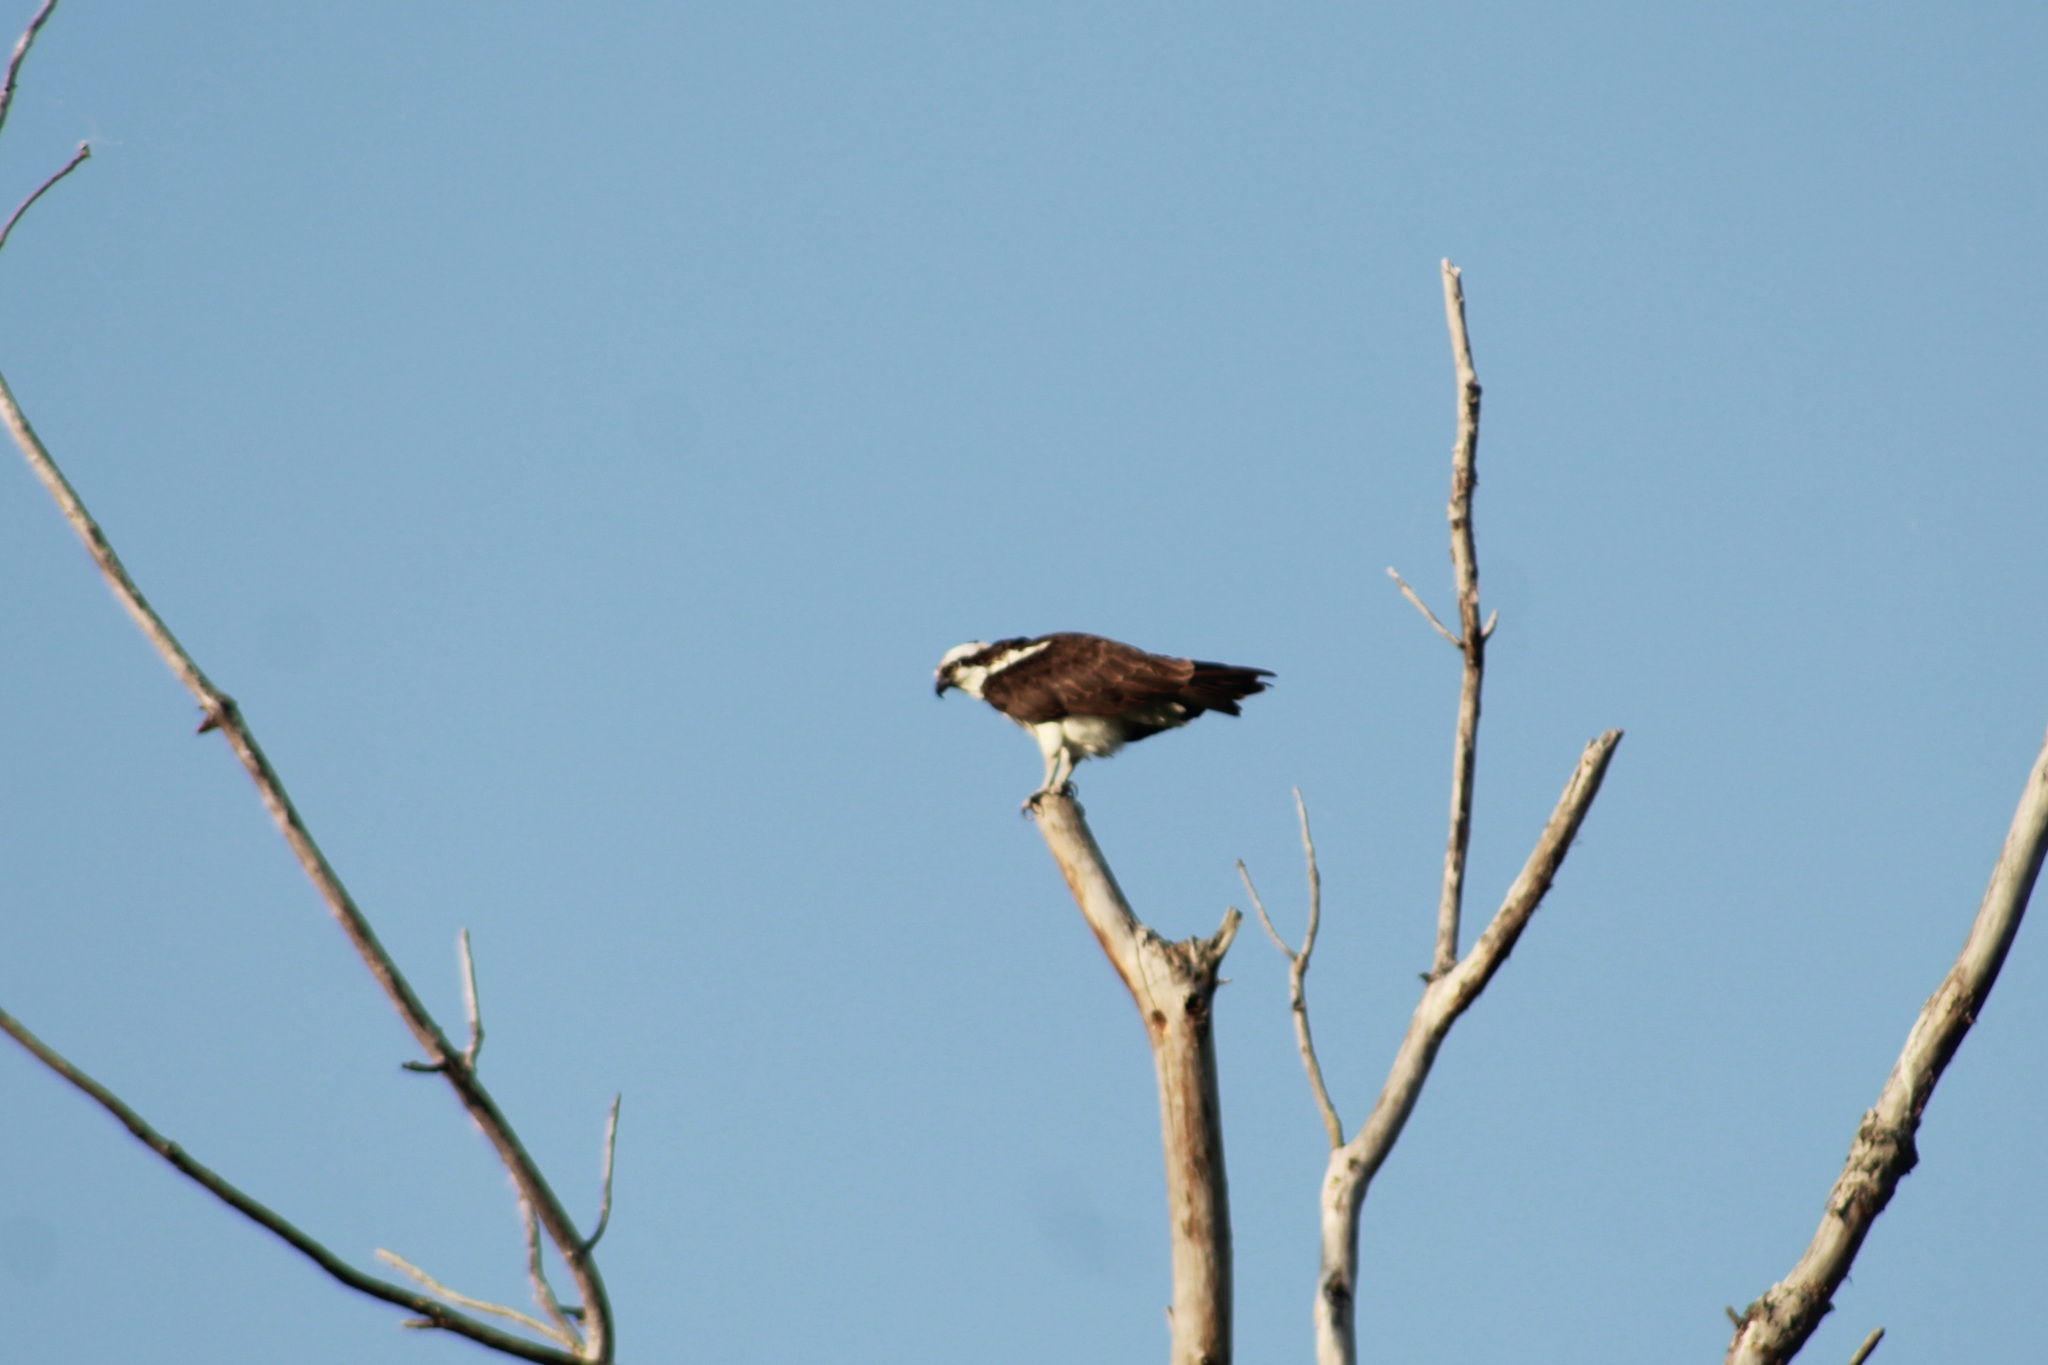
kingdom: Animalia
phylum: Chordata
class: Aves
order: Accipitriformes
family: Pandionidae
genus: Pandion
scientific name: Pandion haliaetus
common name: Osprey
